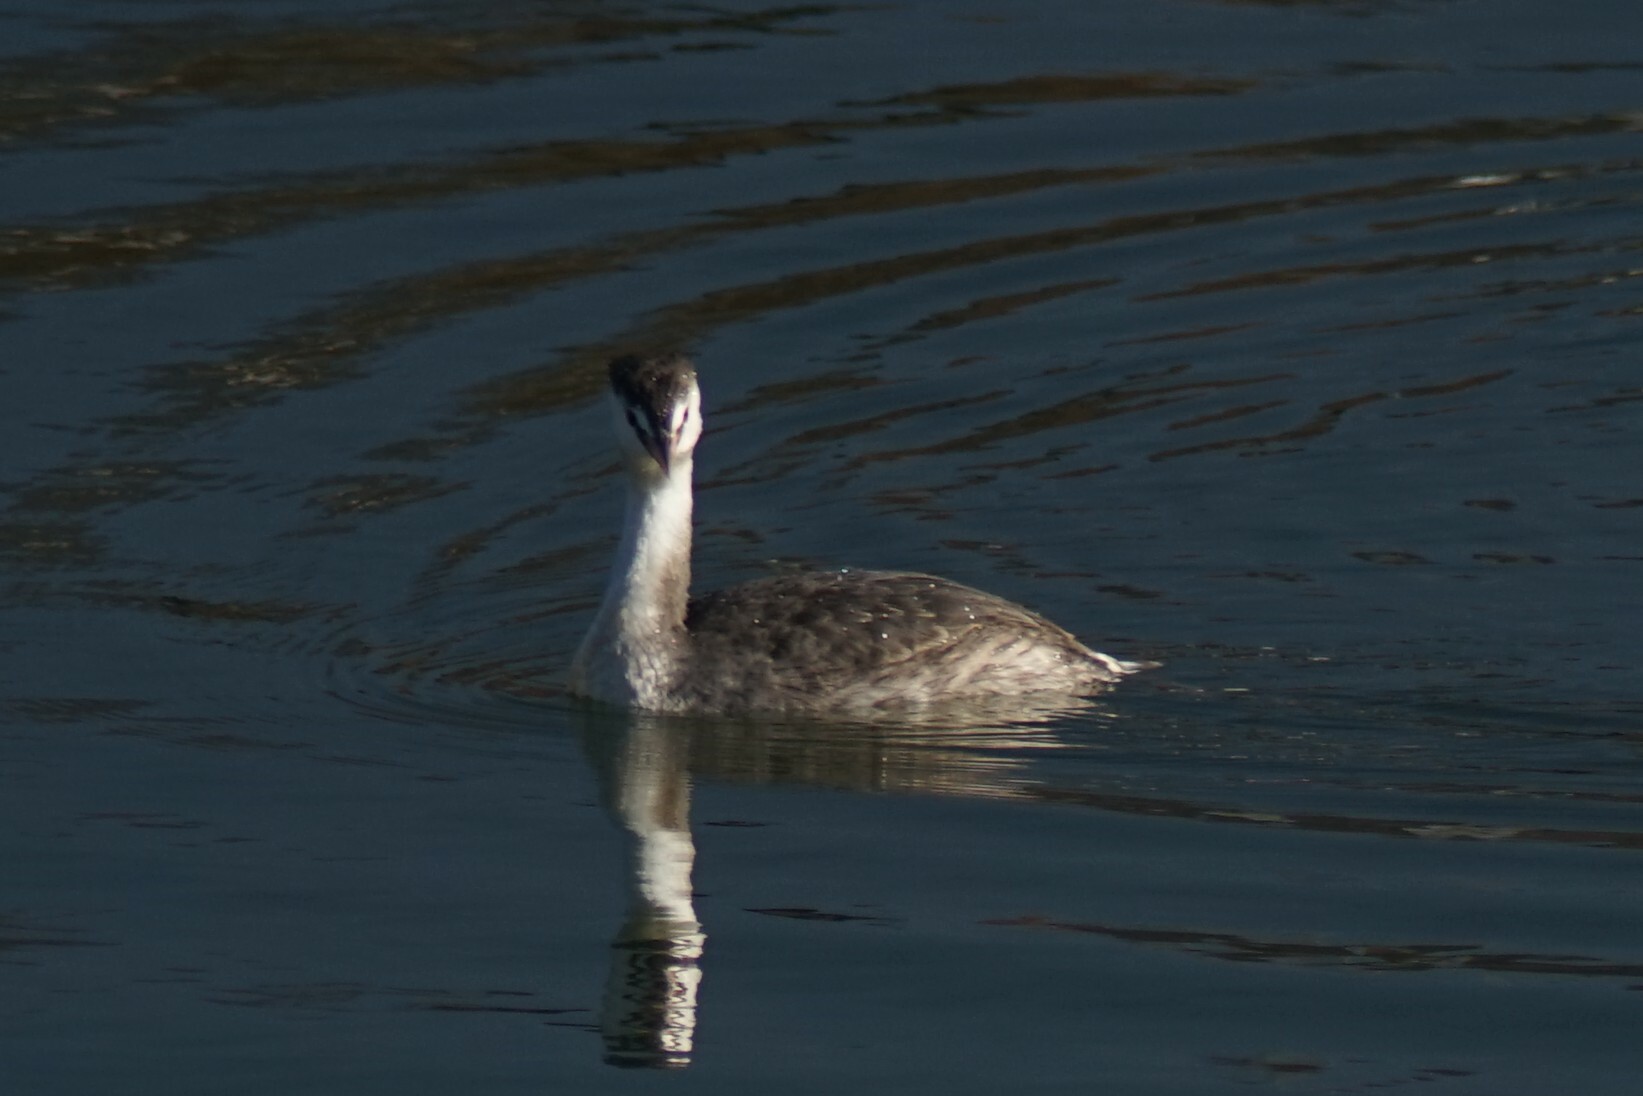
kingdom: Animalia
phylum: Chordata
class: Aves
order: Podicipediformes
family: Podicipedidae
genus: Podiceps
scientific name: Podiceps cristatus
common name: Great crested grebe
